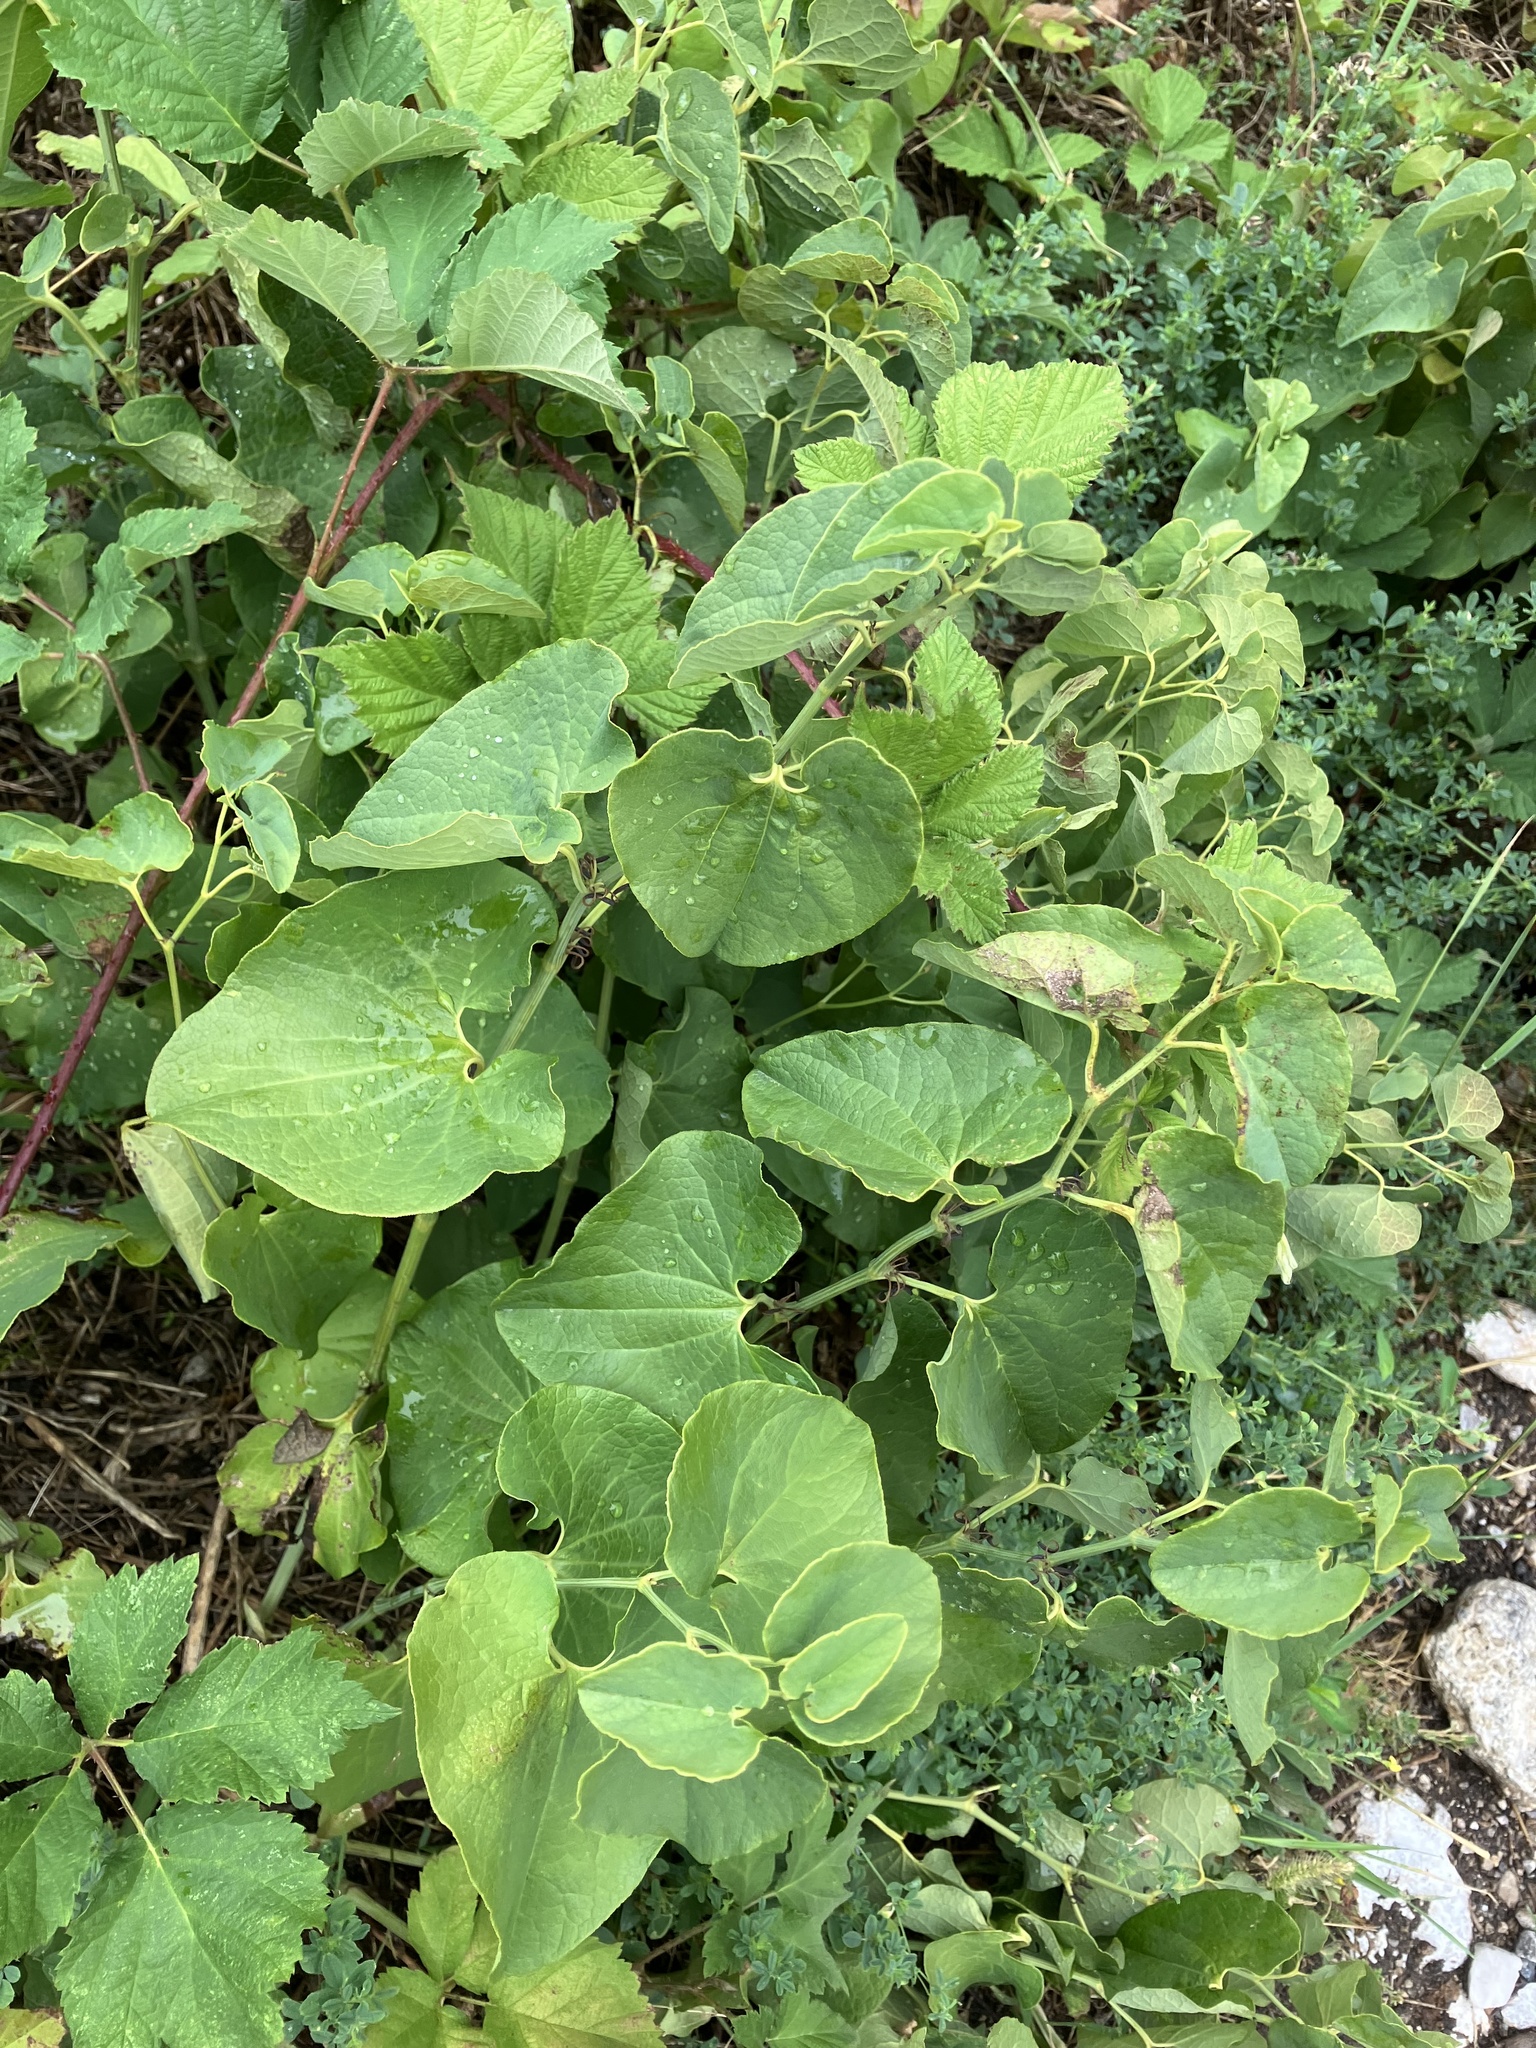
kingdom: Plantae
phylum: Tracheophyta
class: Magnoliopsida
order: Piperales
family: Aristolochiaceae
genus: Aristolochia
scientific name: Aristolochia clematitis
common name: Birthwort
